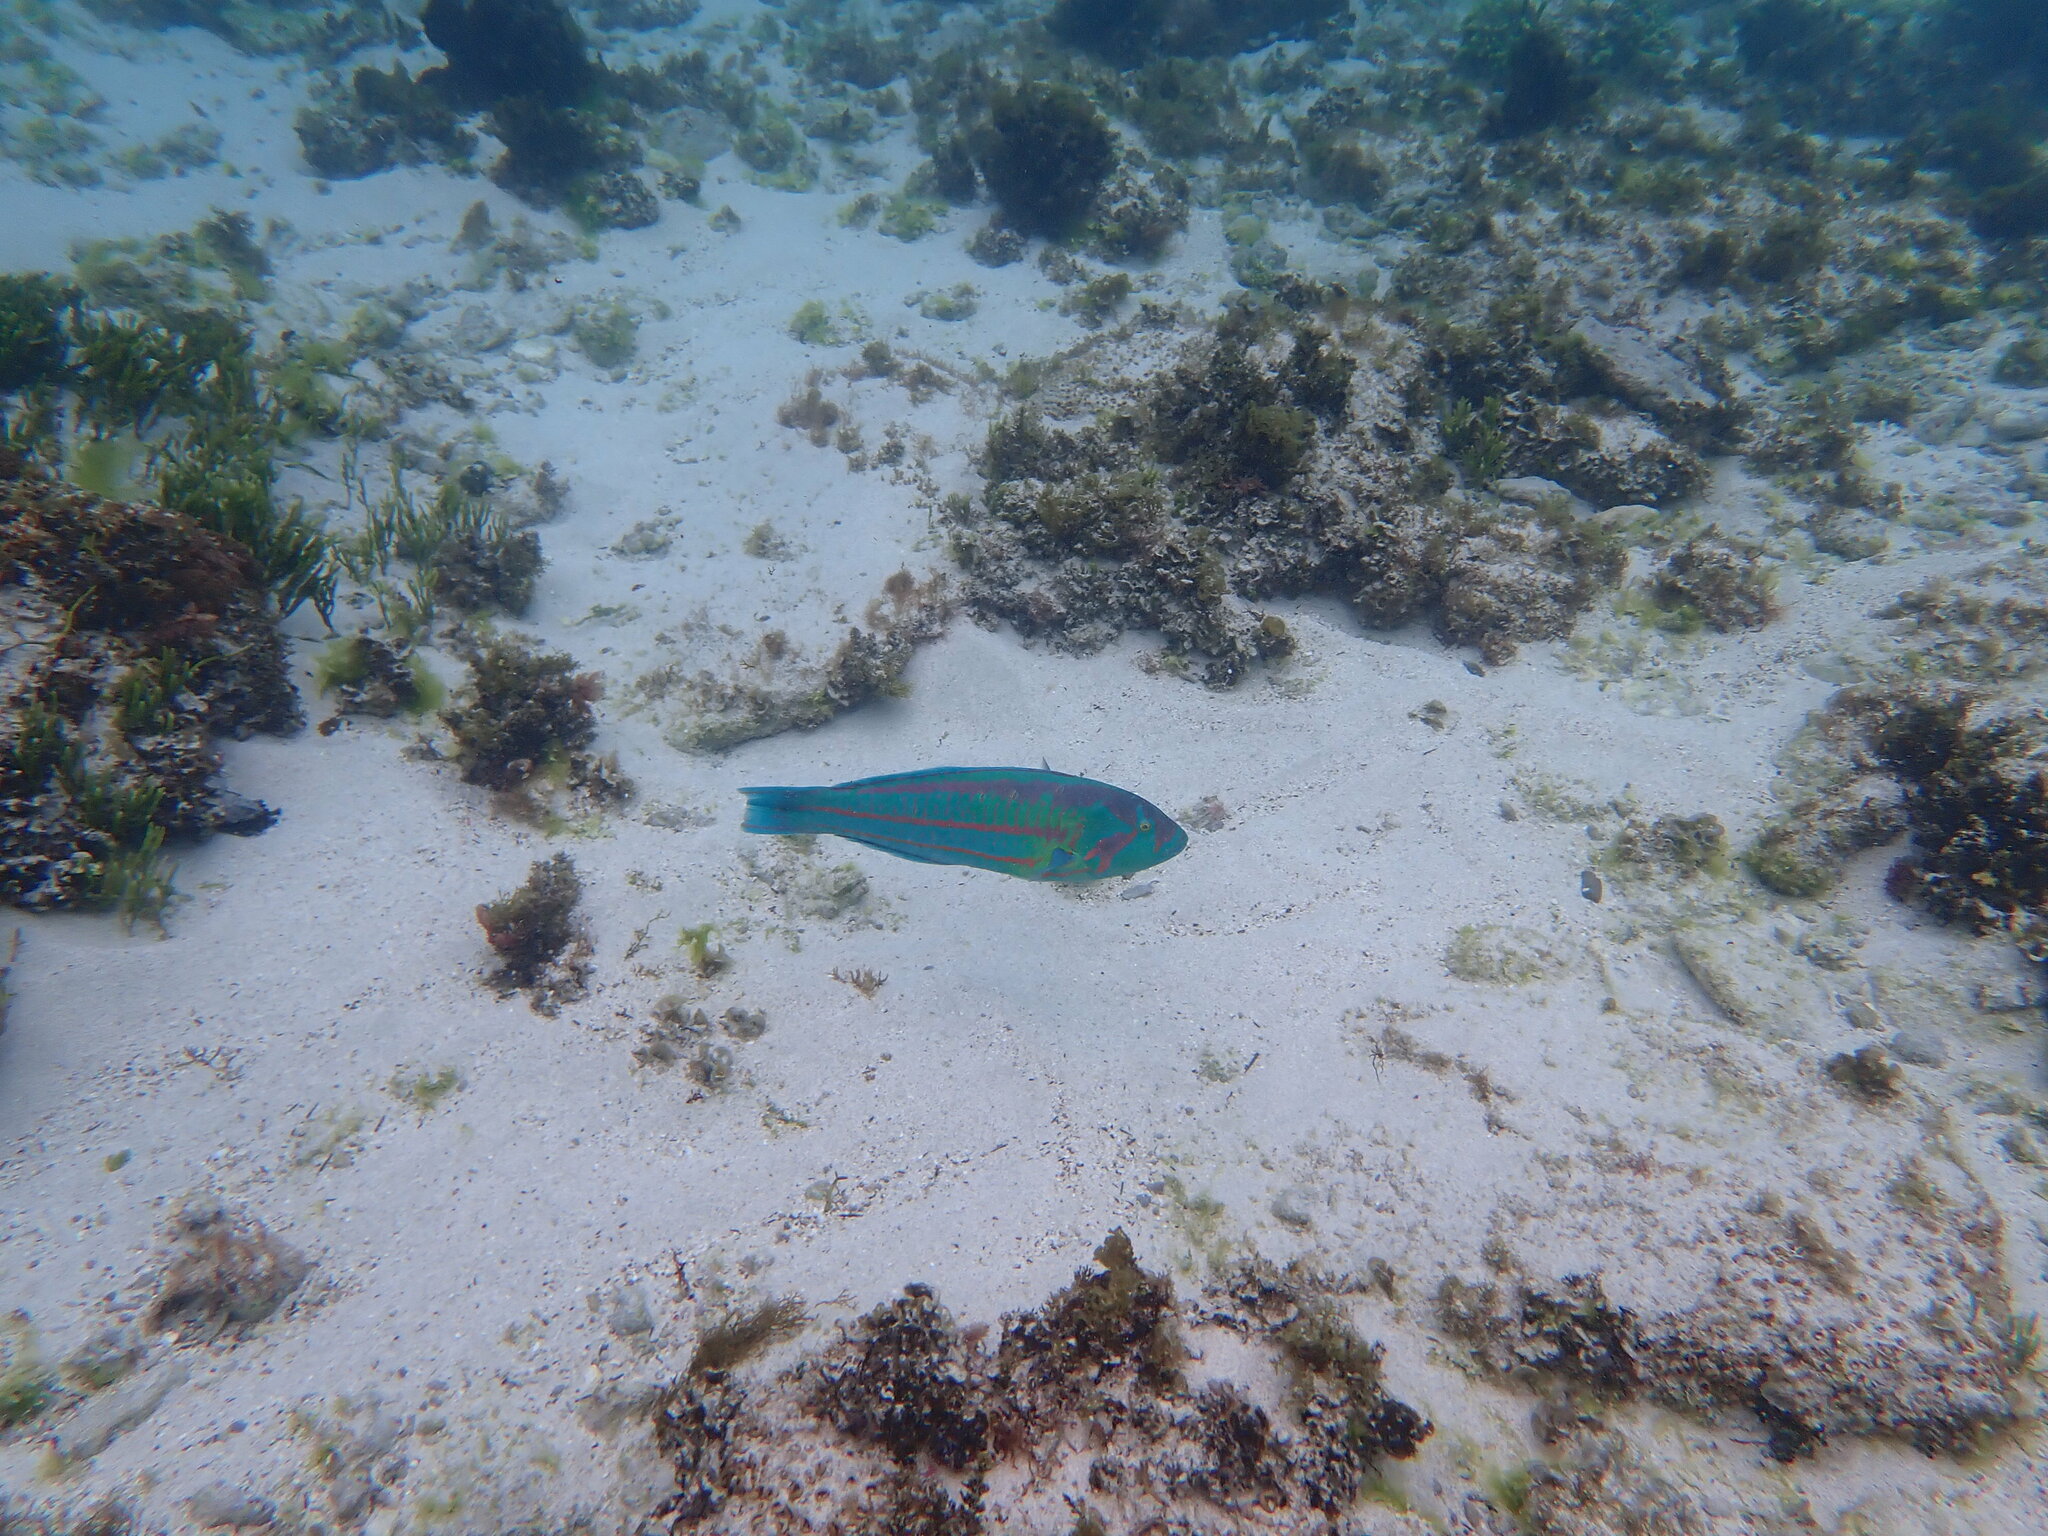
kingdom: Animalia
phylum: Chordata
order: Perciformes
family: Labridae
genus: Thalassoma
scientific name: Thalassoma purpureum
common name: Parrotfish
